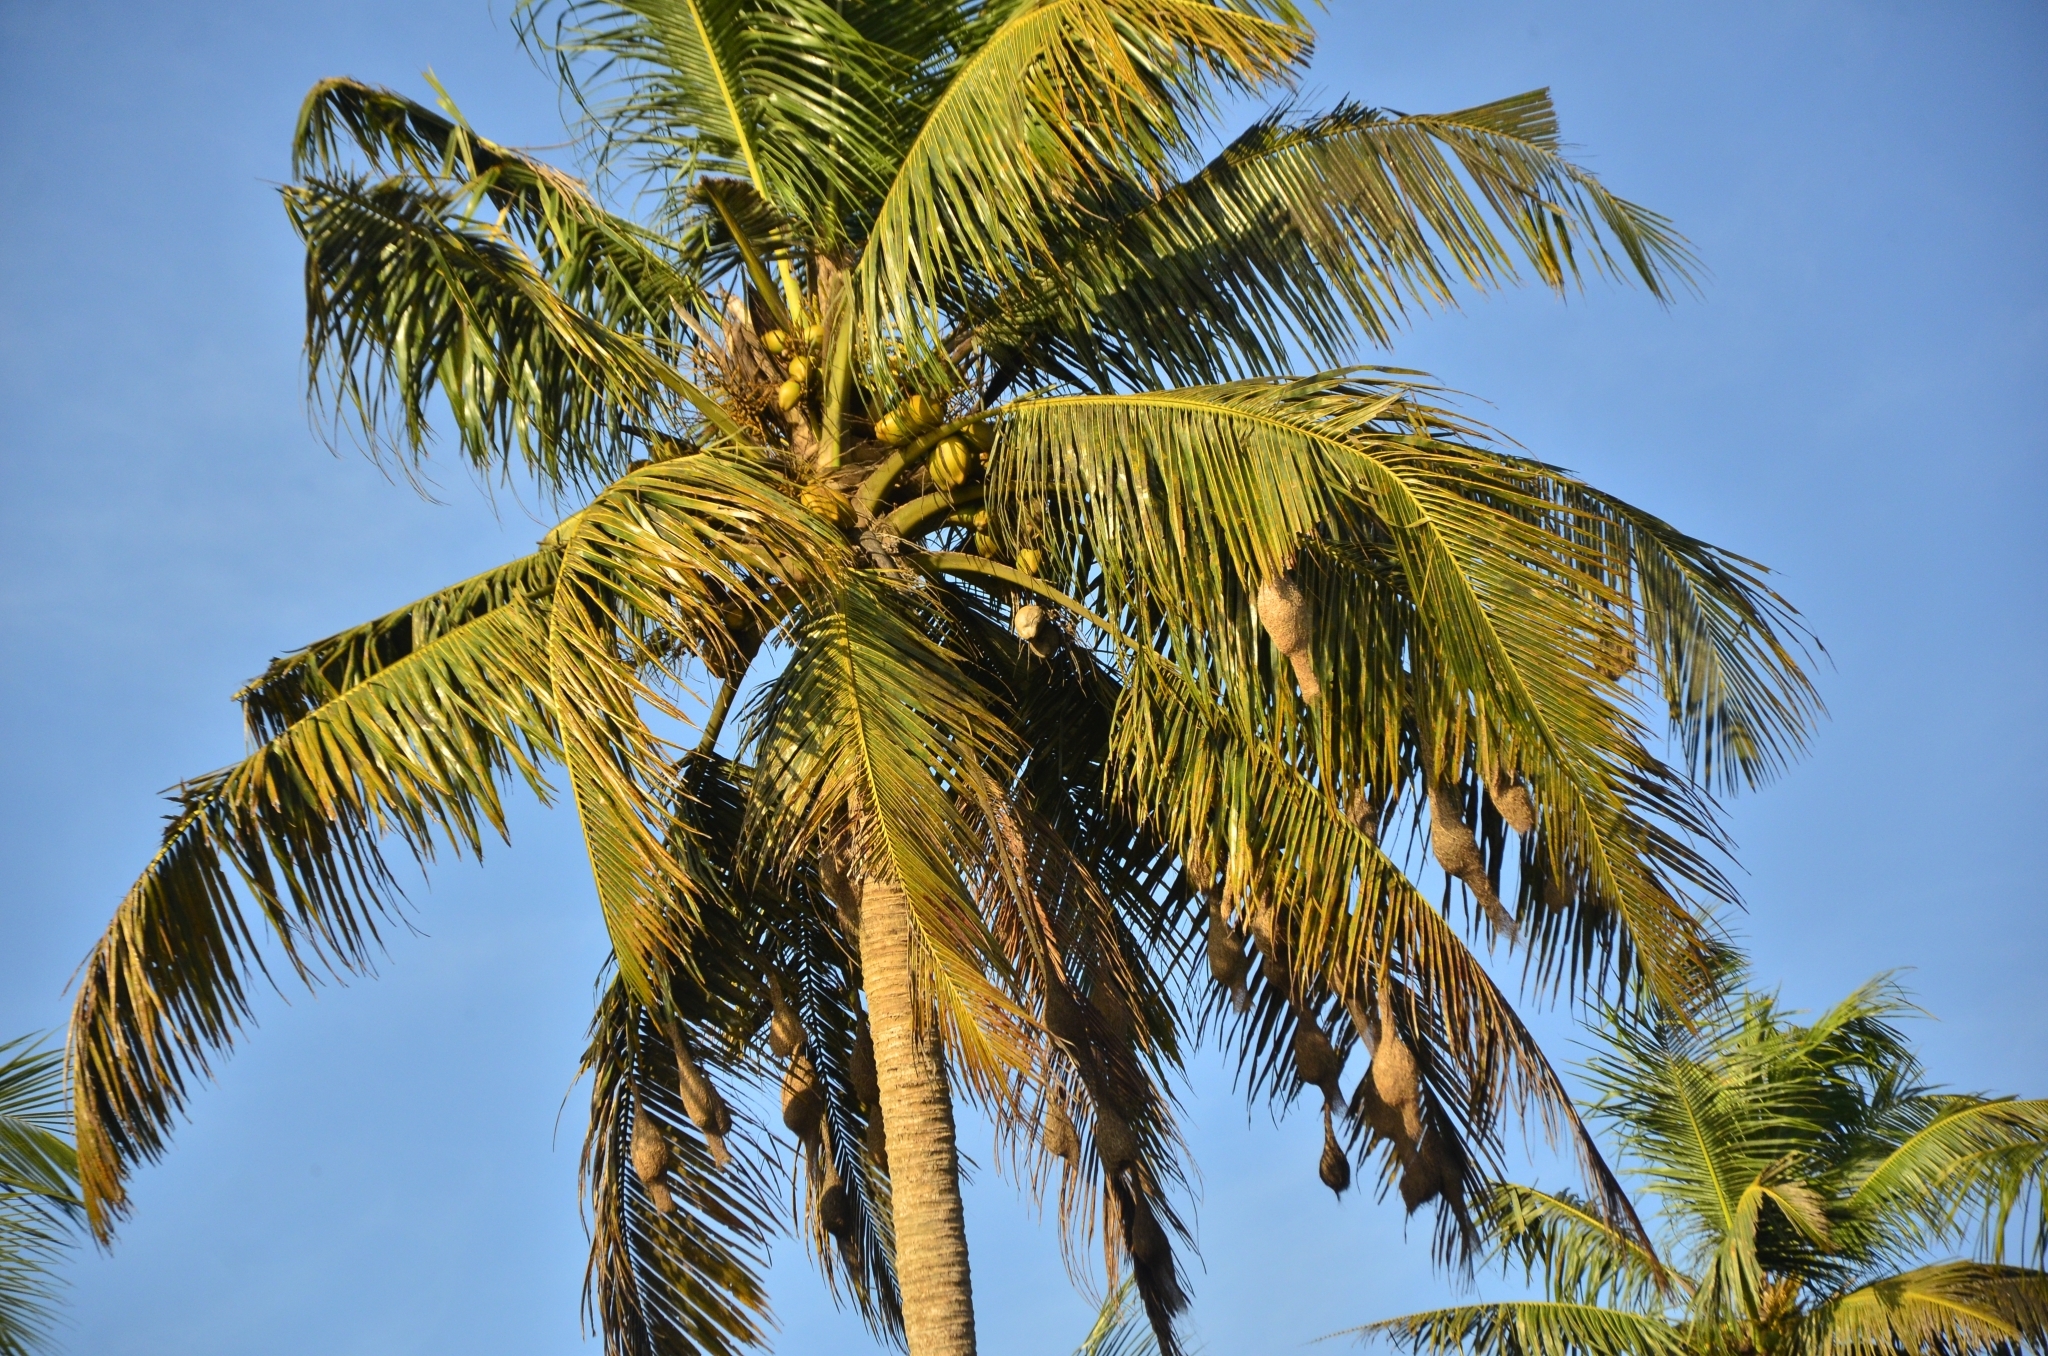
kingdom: Animalia
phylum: Chordata
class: Aves
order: Passeriformes
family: Ploceidae
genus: Ploceus
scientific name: Ploceus philippinus
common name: Baya weaver
